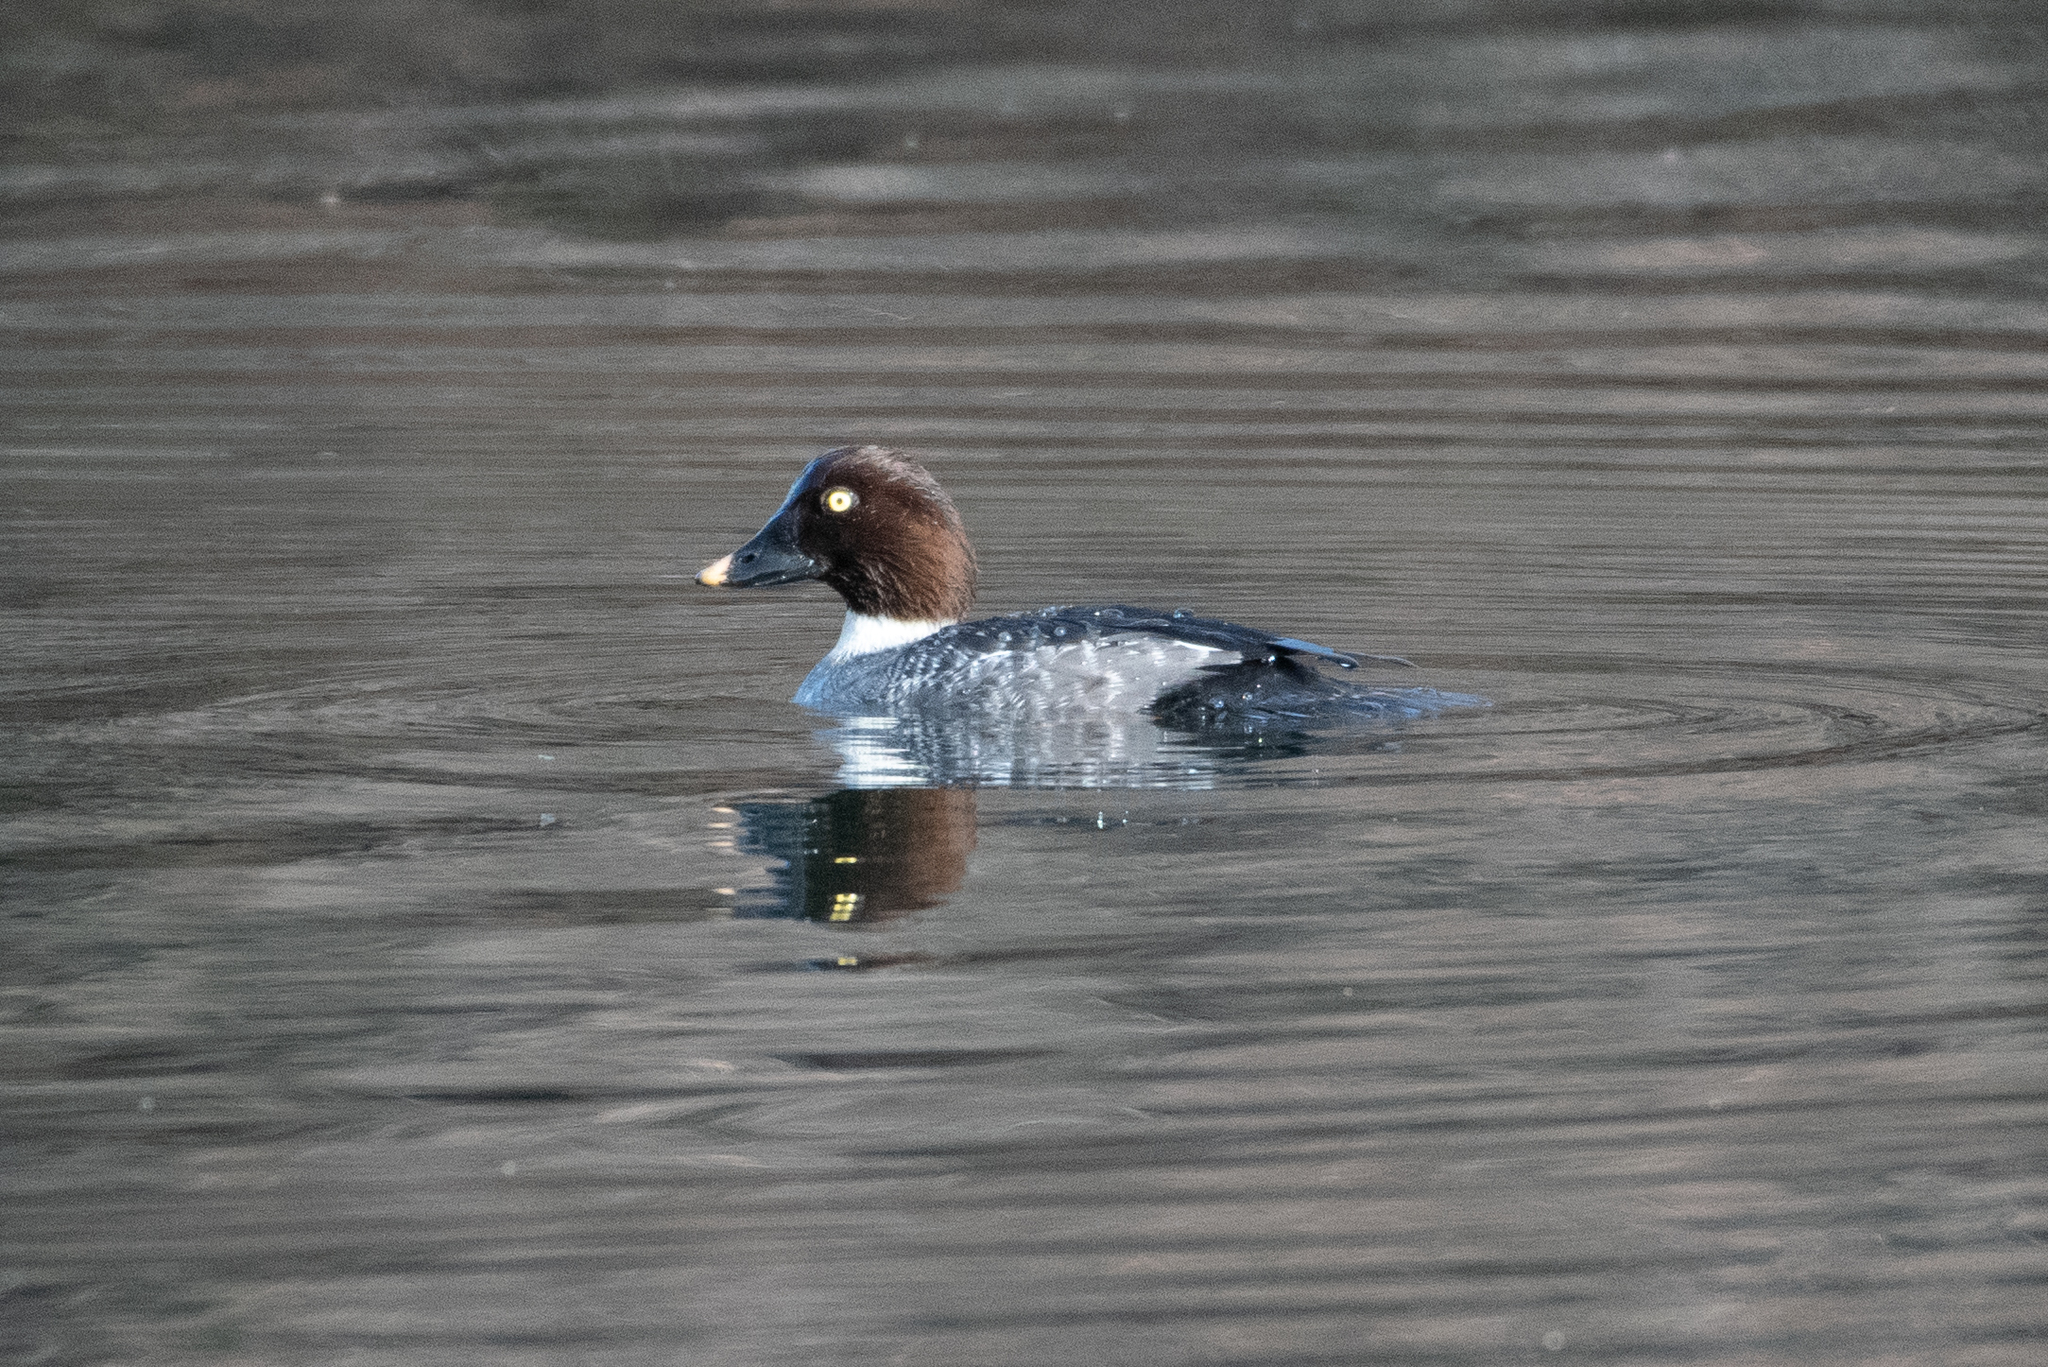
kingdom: Animalia
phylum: Chordata
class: Aves
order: Anseriformes
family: Anatidae
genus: Bucephala
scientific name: Bucephala clangula
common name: Common goldeneye
